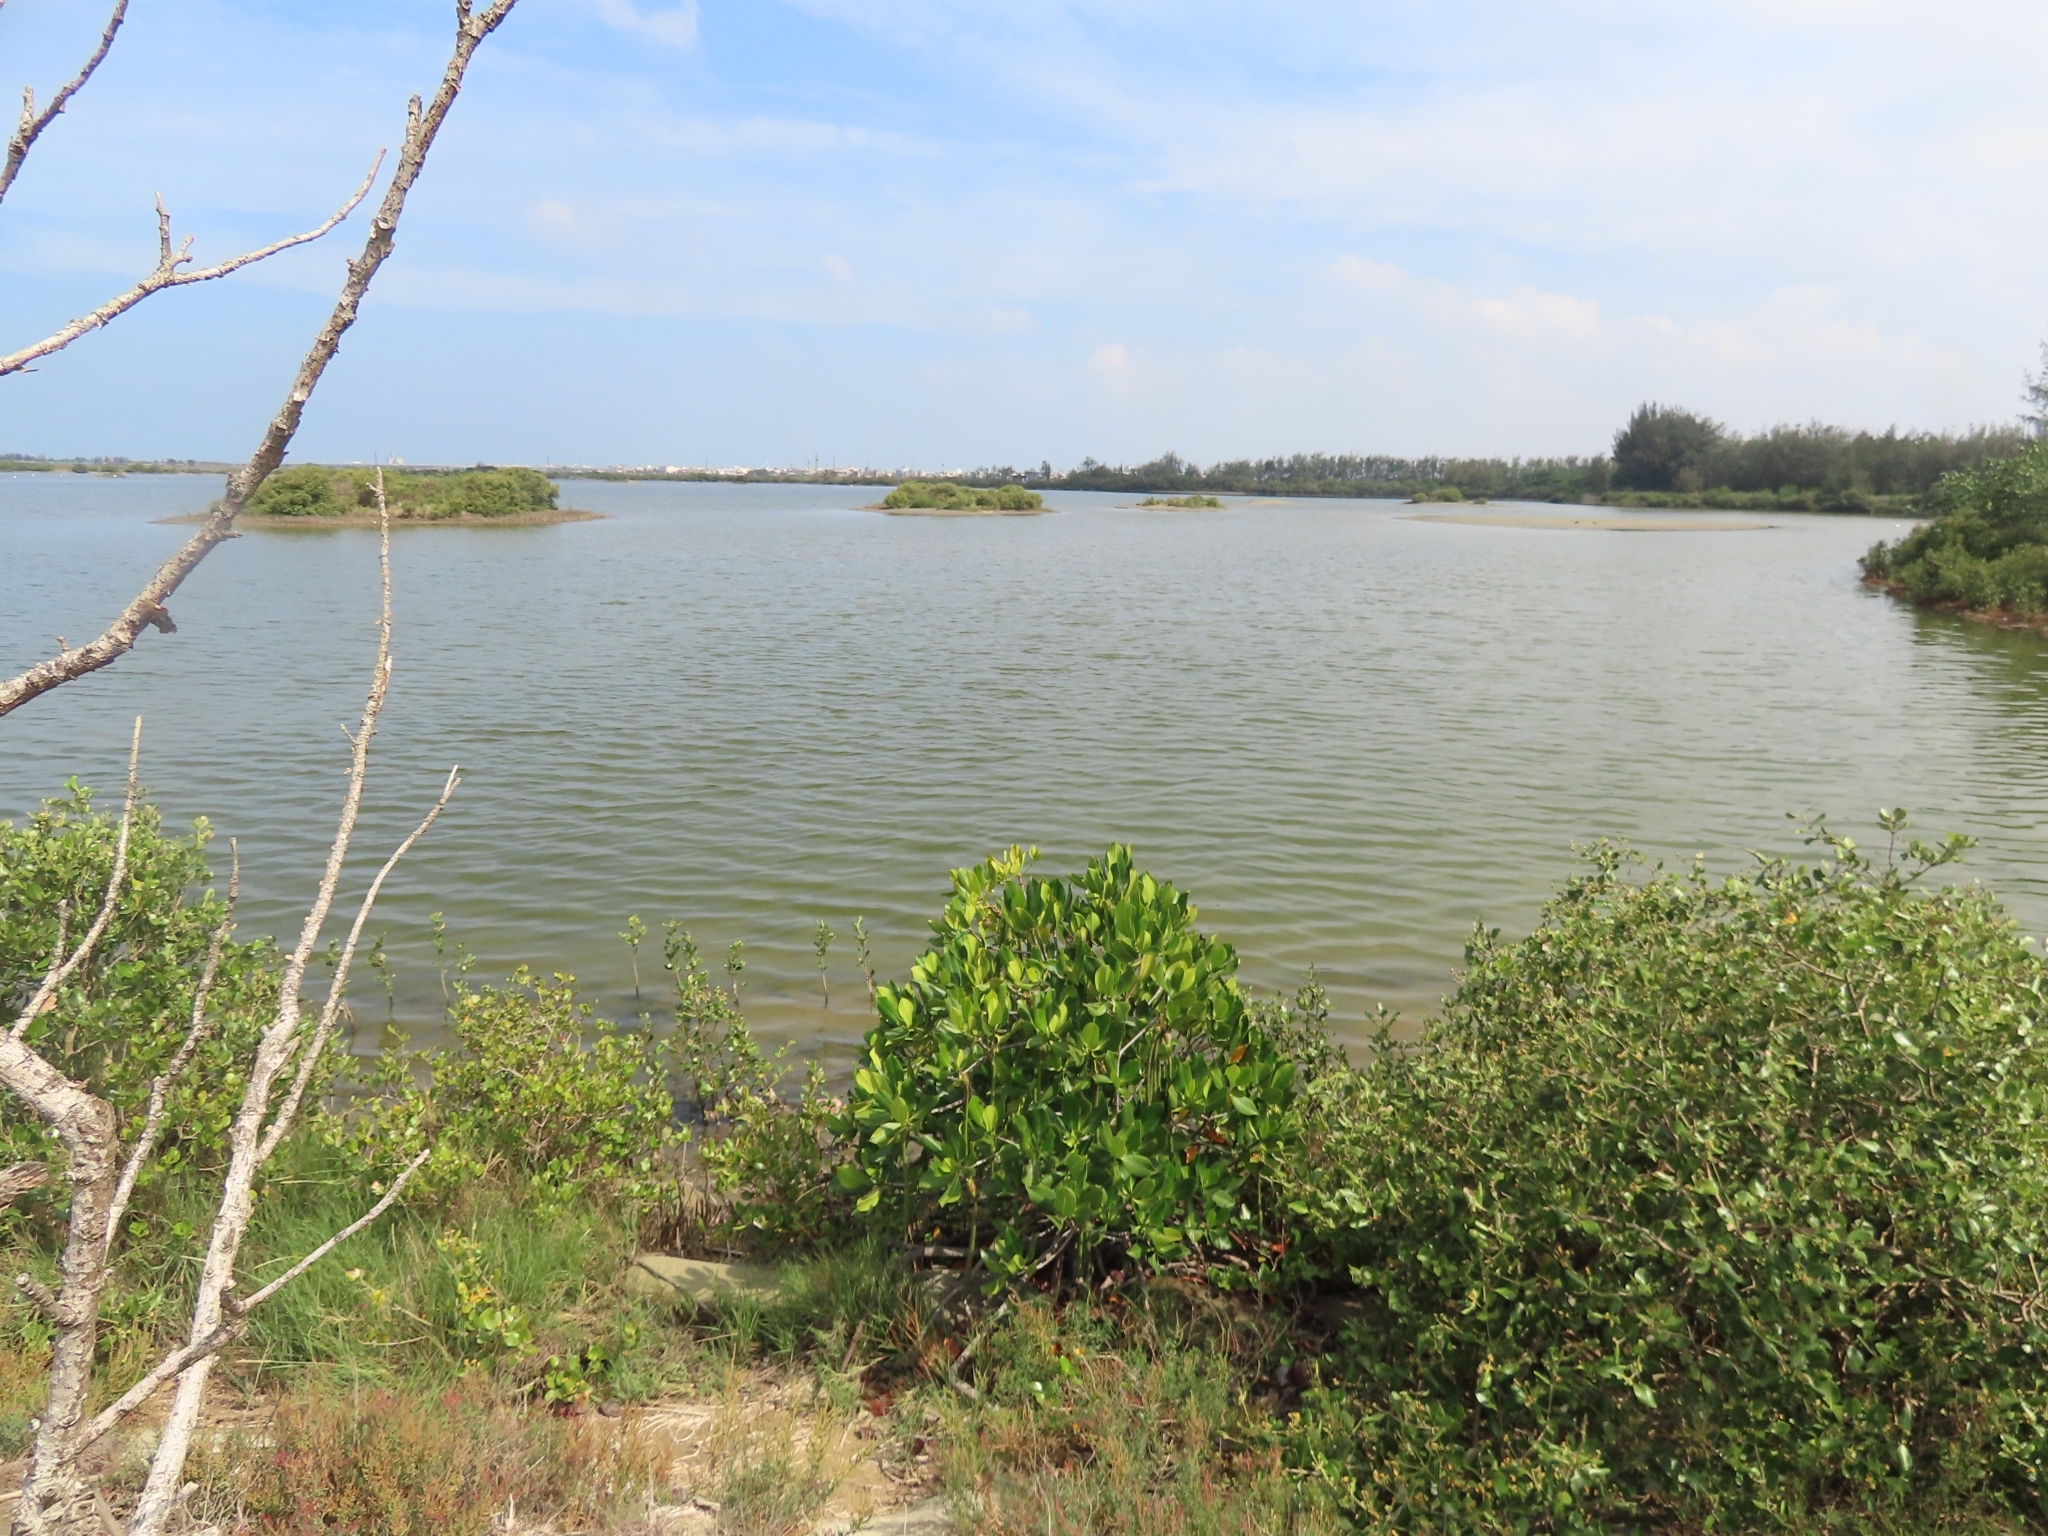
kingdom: Plantae
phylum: Tracheophyta
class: Magnoliopsida
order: Malpighiales
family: Rhizophoraceae
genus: Rhizophora
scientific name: Rhizophora stylosa
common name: Red mangrove
